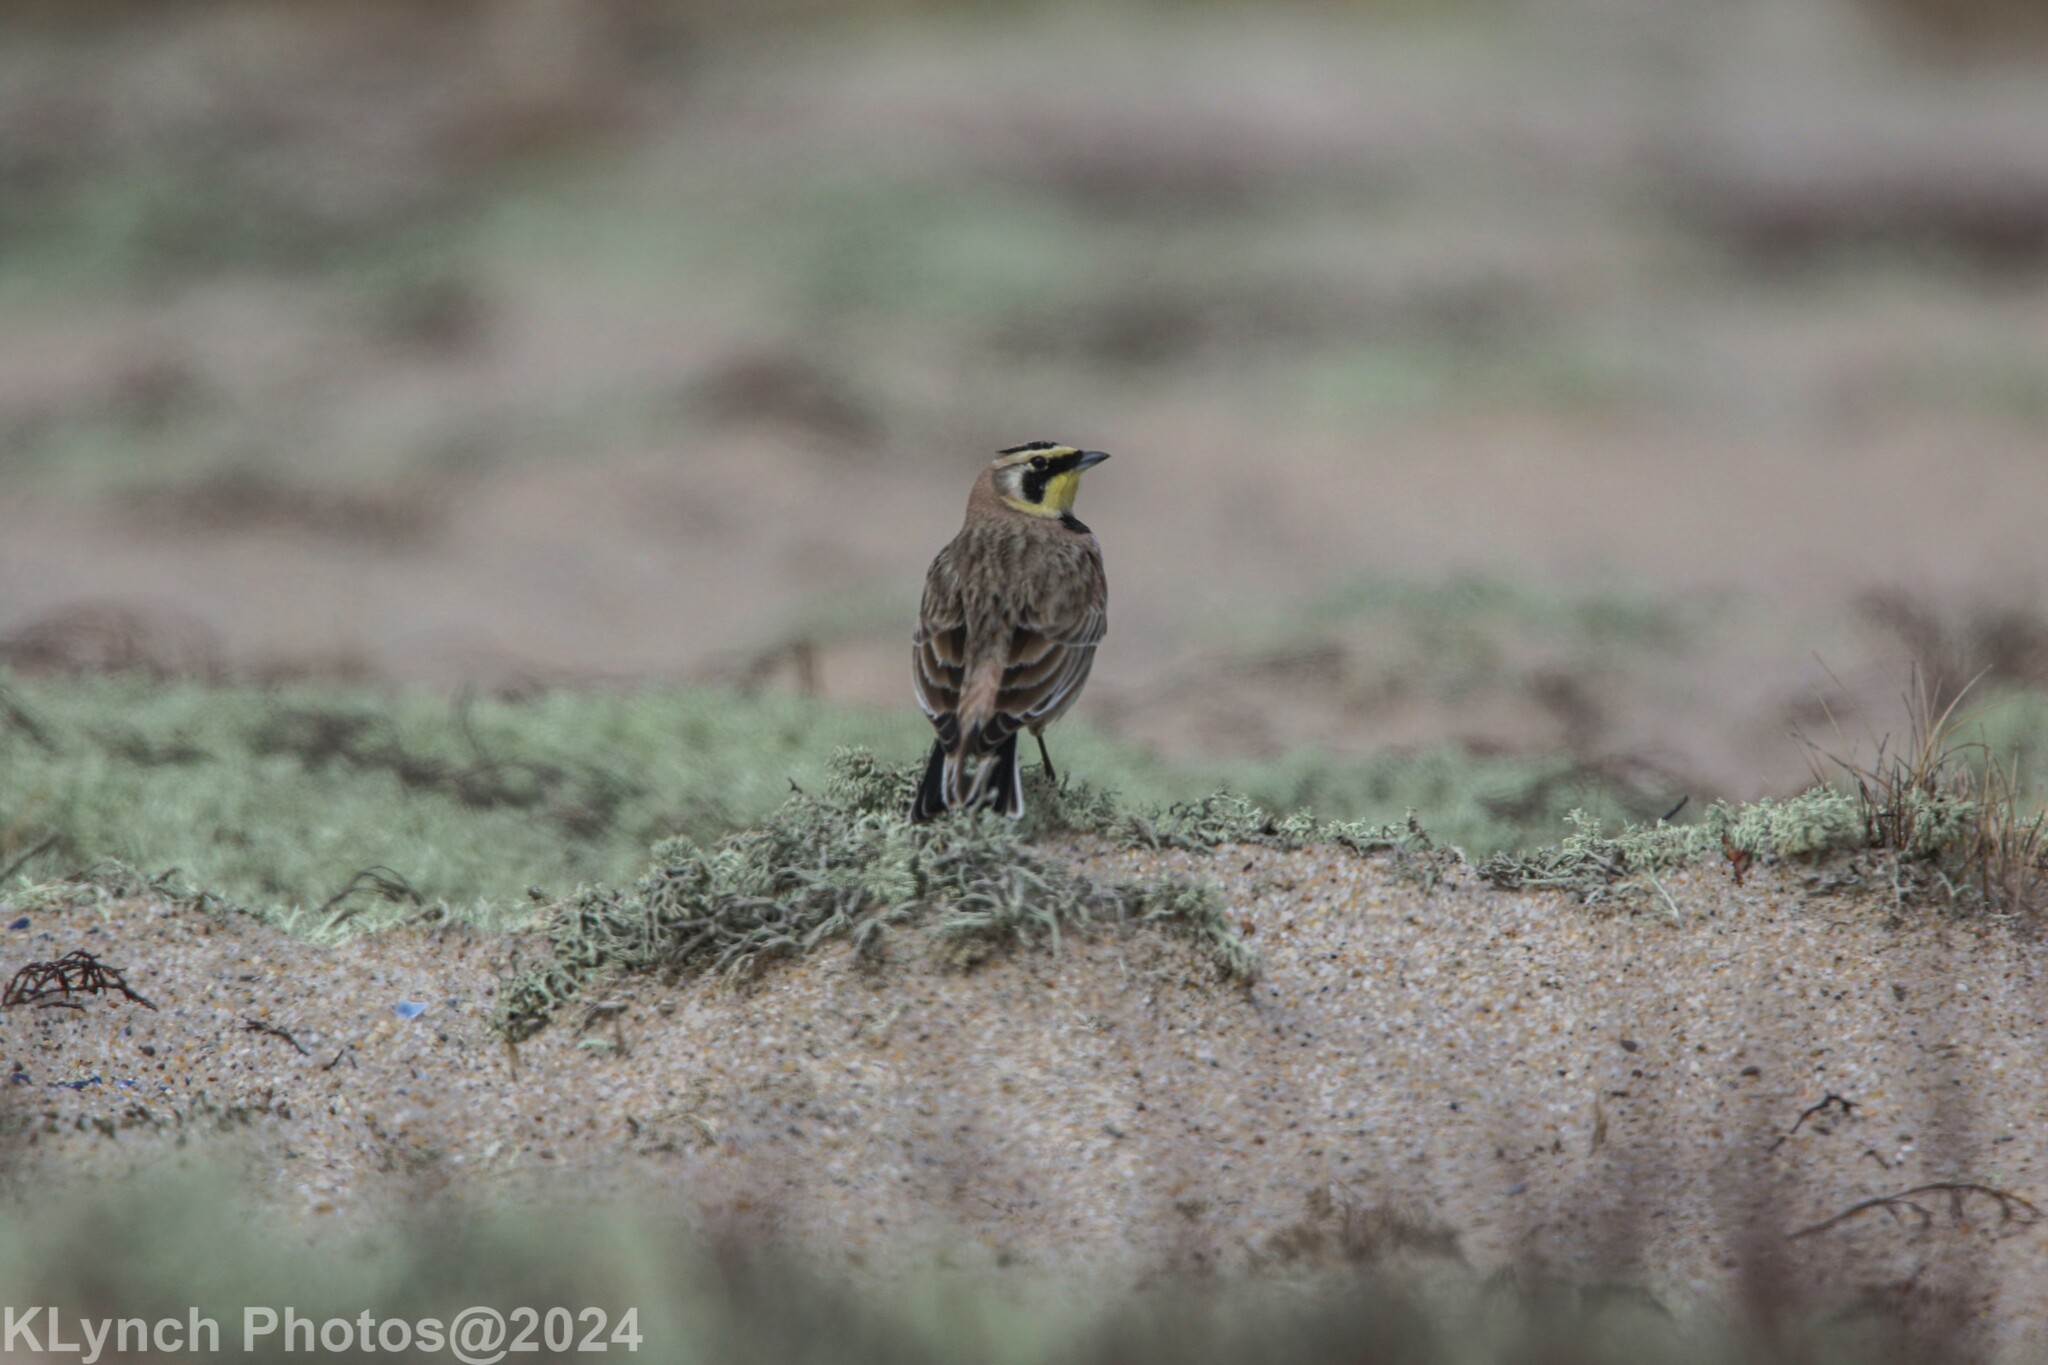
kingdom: Animalia
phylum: Chordata
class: Aves
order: Passeriformes
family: Alaudidae
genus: Eremophila
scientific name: Eremophila alpestris
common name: Horned lark
